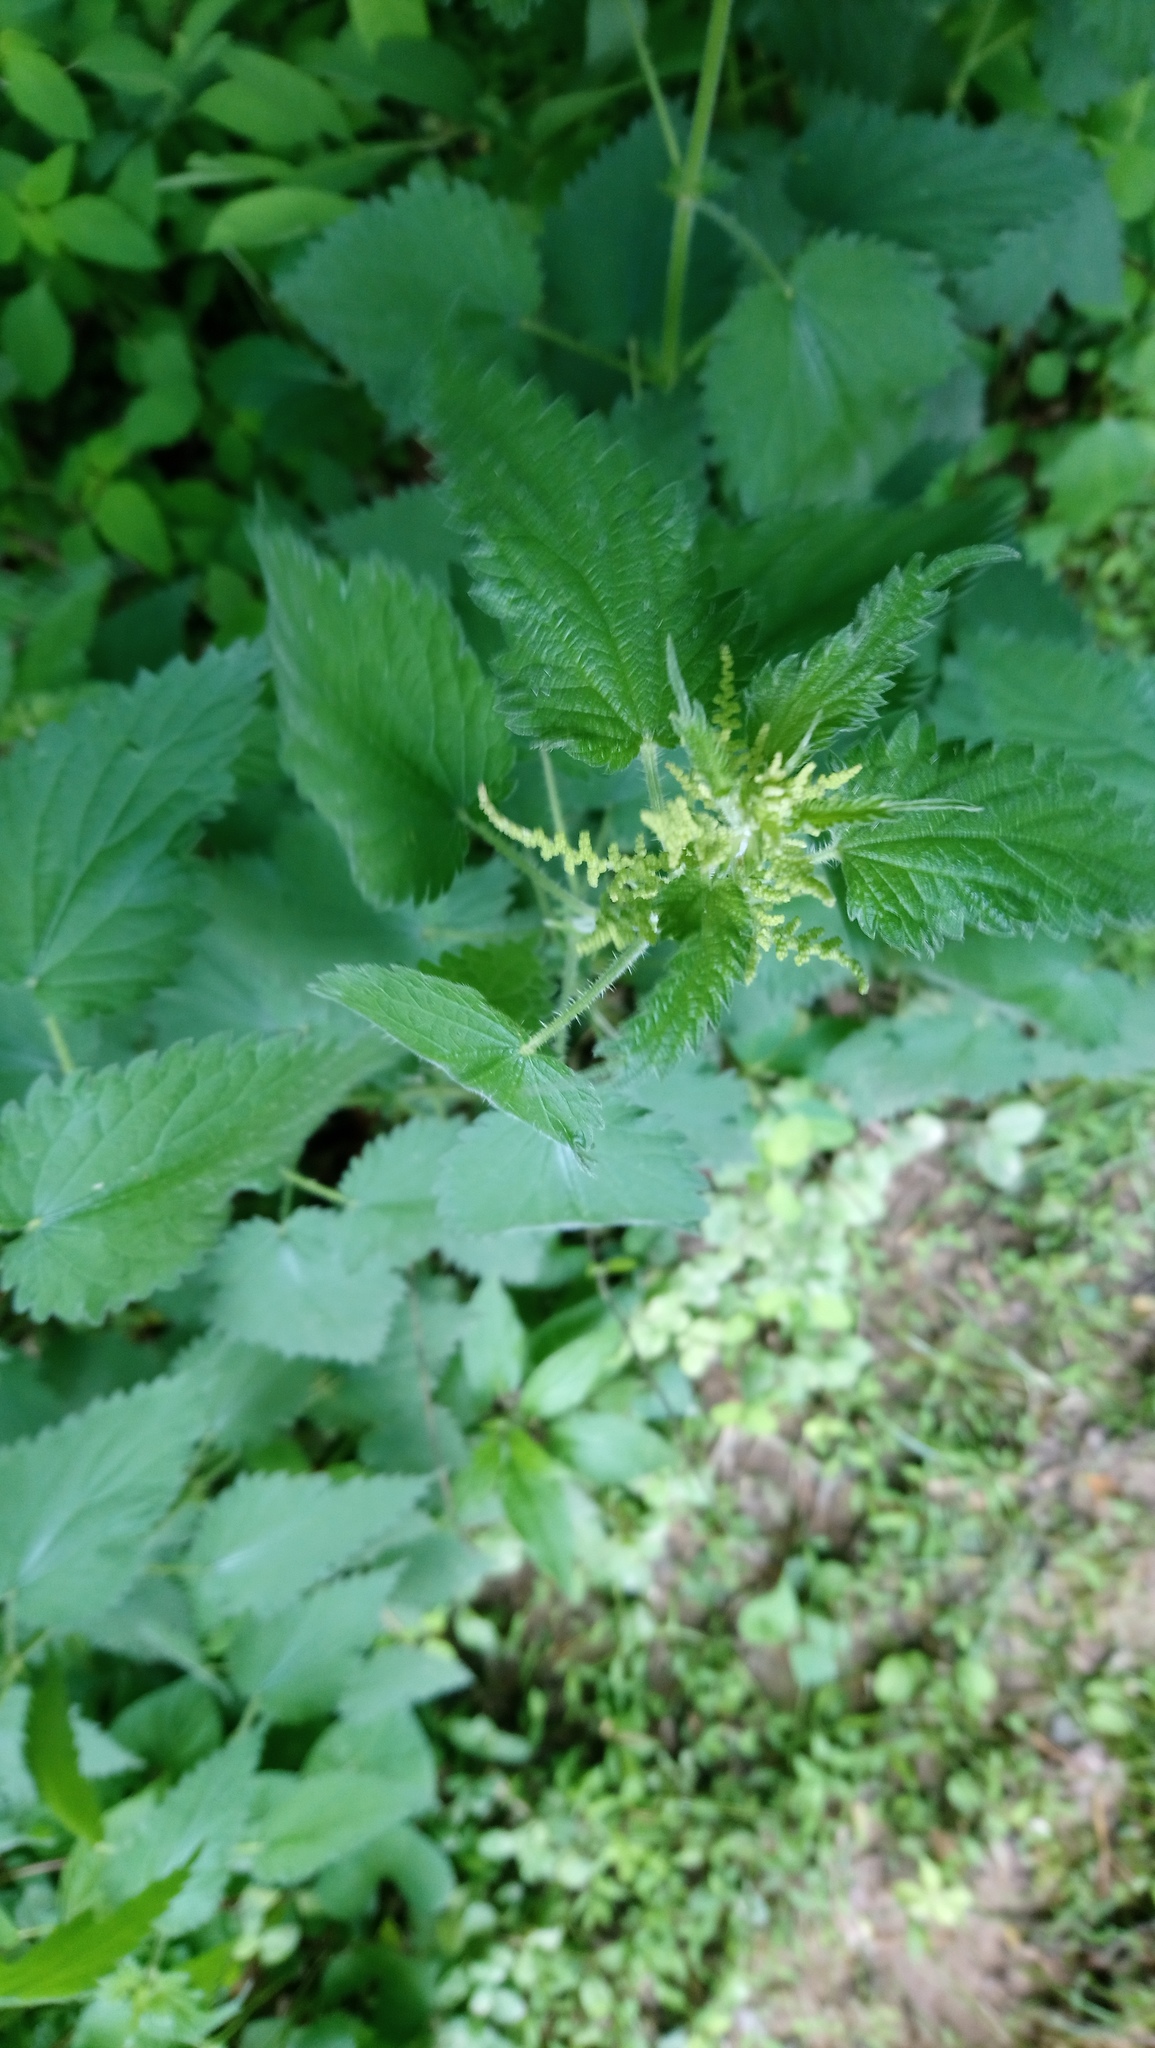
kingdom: Plantae
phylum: Tracheophyta
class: Magnoliopsida
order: Rosales
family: Urticaceae
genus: Urtica
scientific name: Urtica dioica
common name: Common nettle
